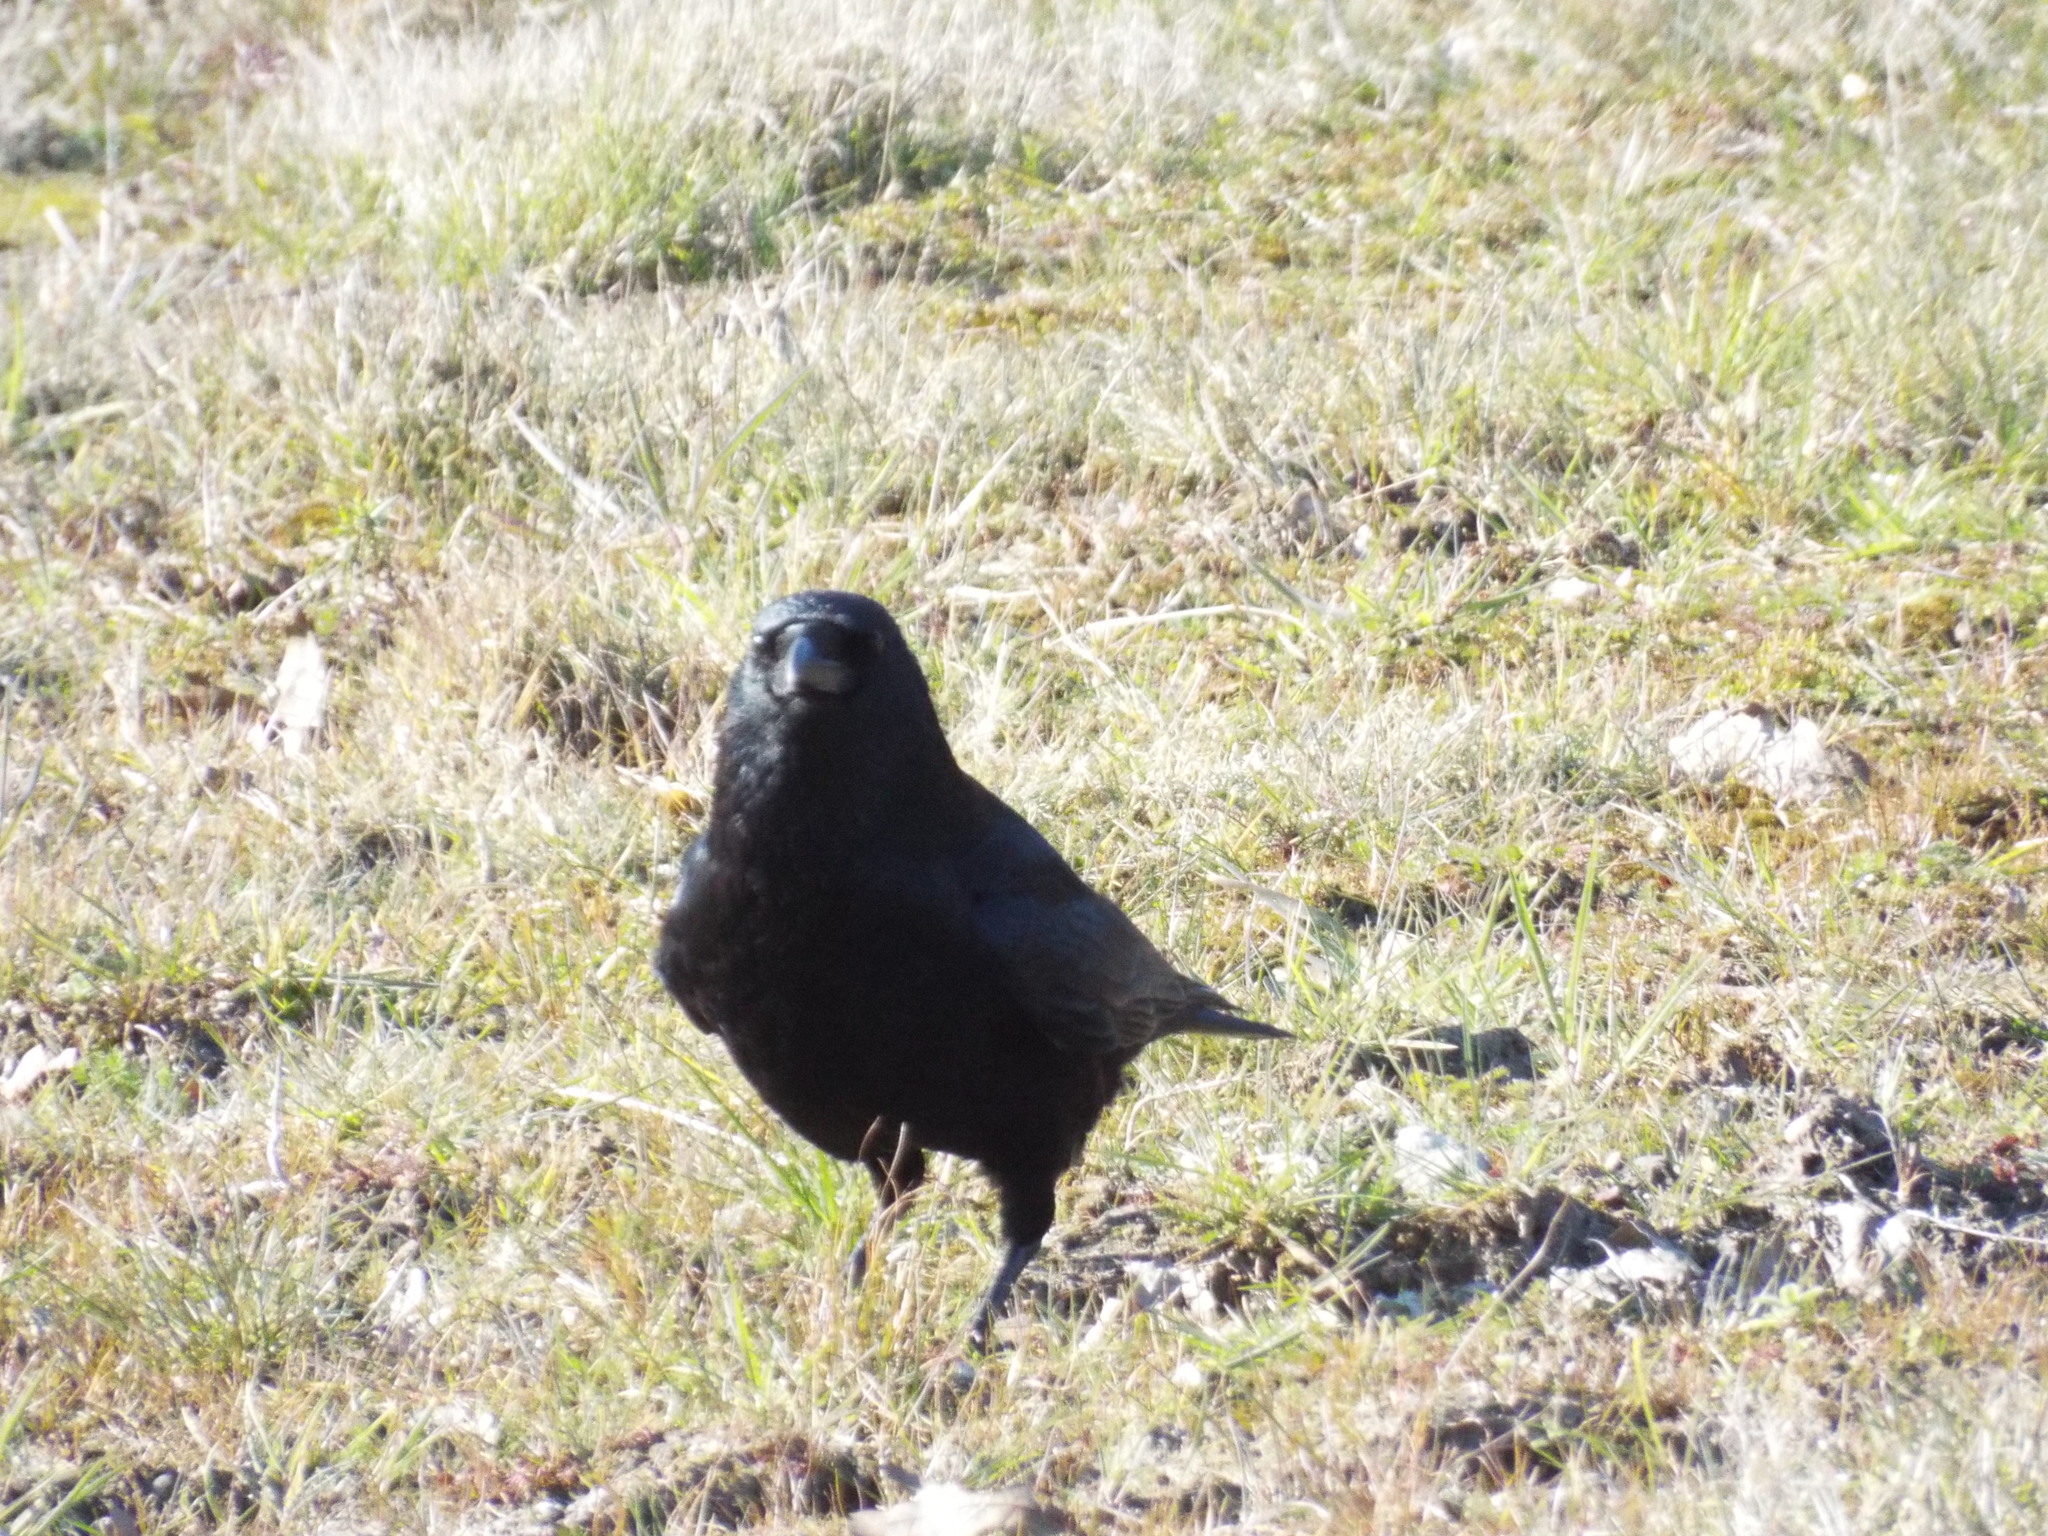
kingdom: Animalia
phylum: Chordata
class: Aves
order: Passeriformes
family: Corvidae
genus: Corvus
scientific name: Corvus corone
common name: Carrion crow
